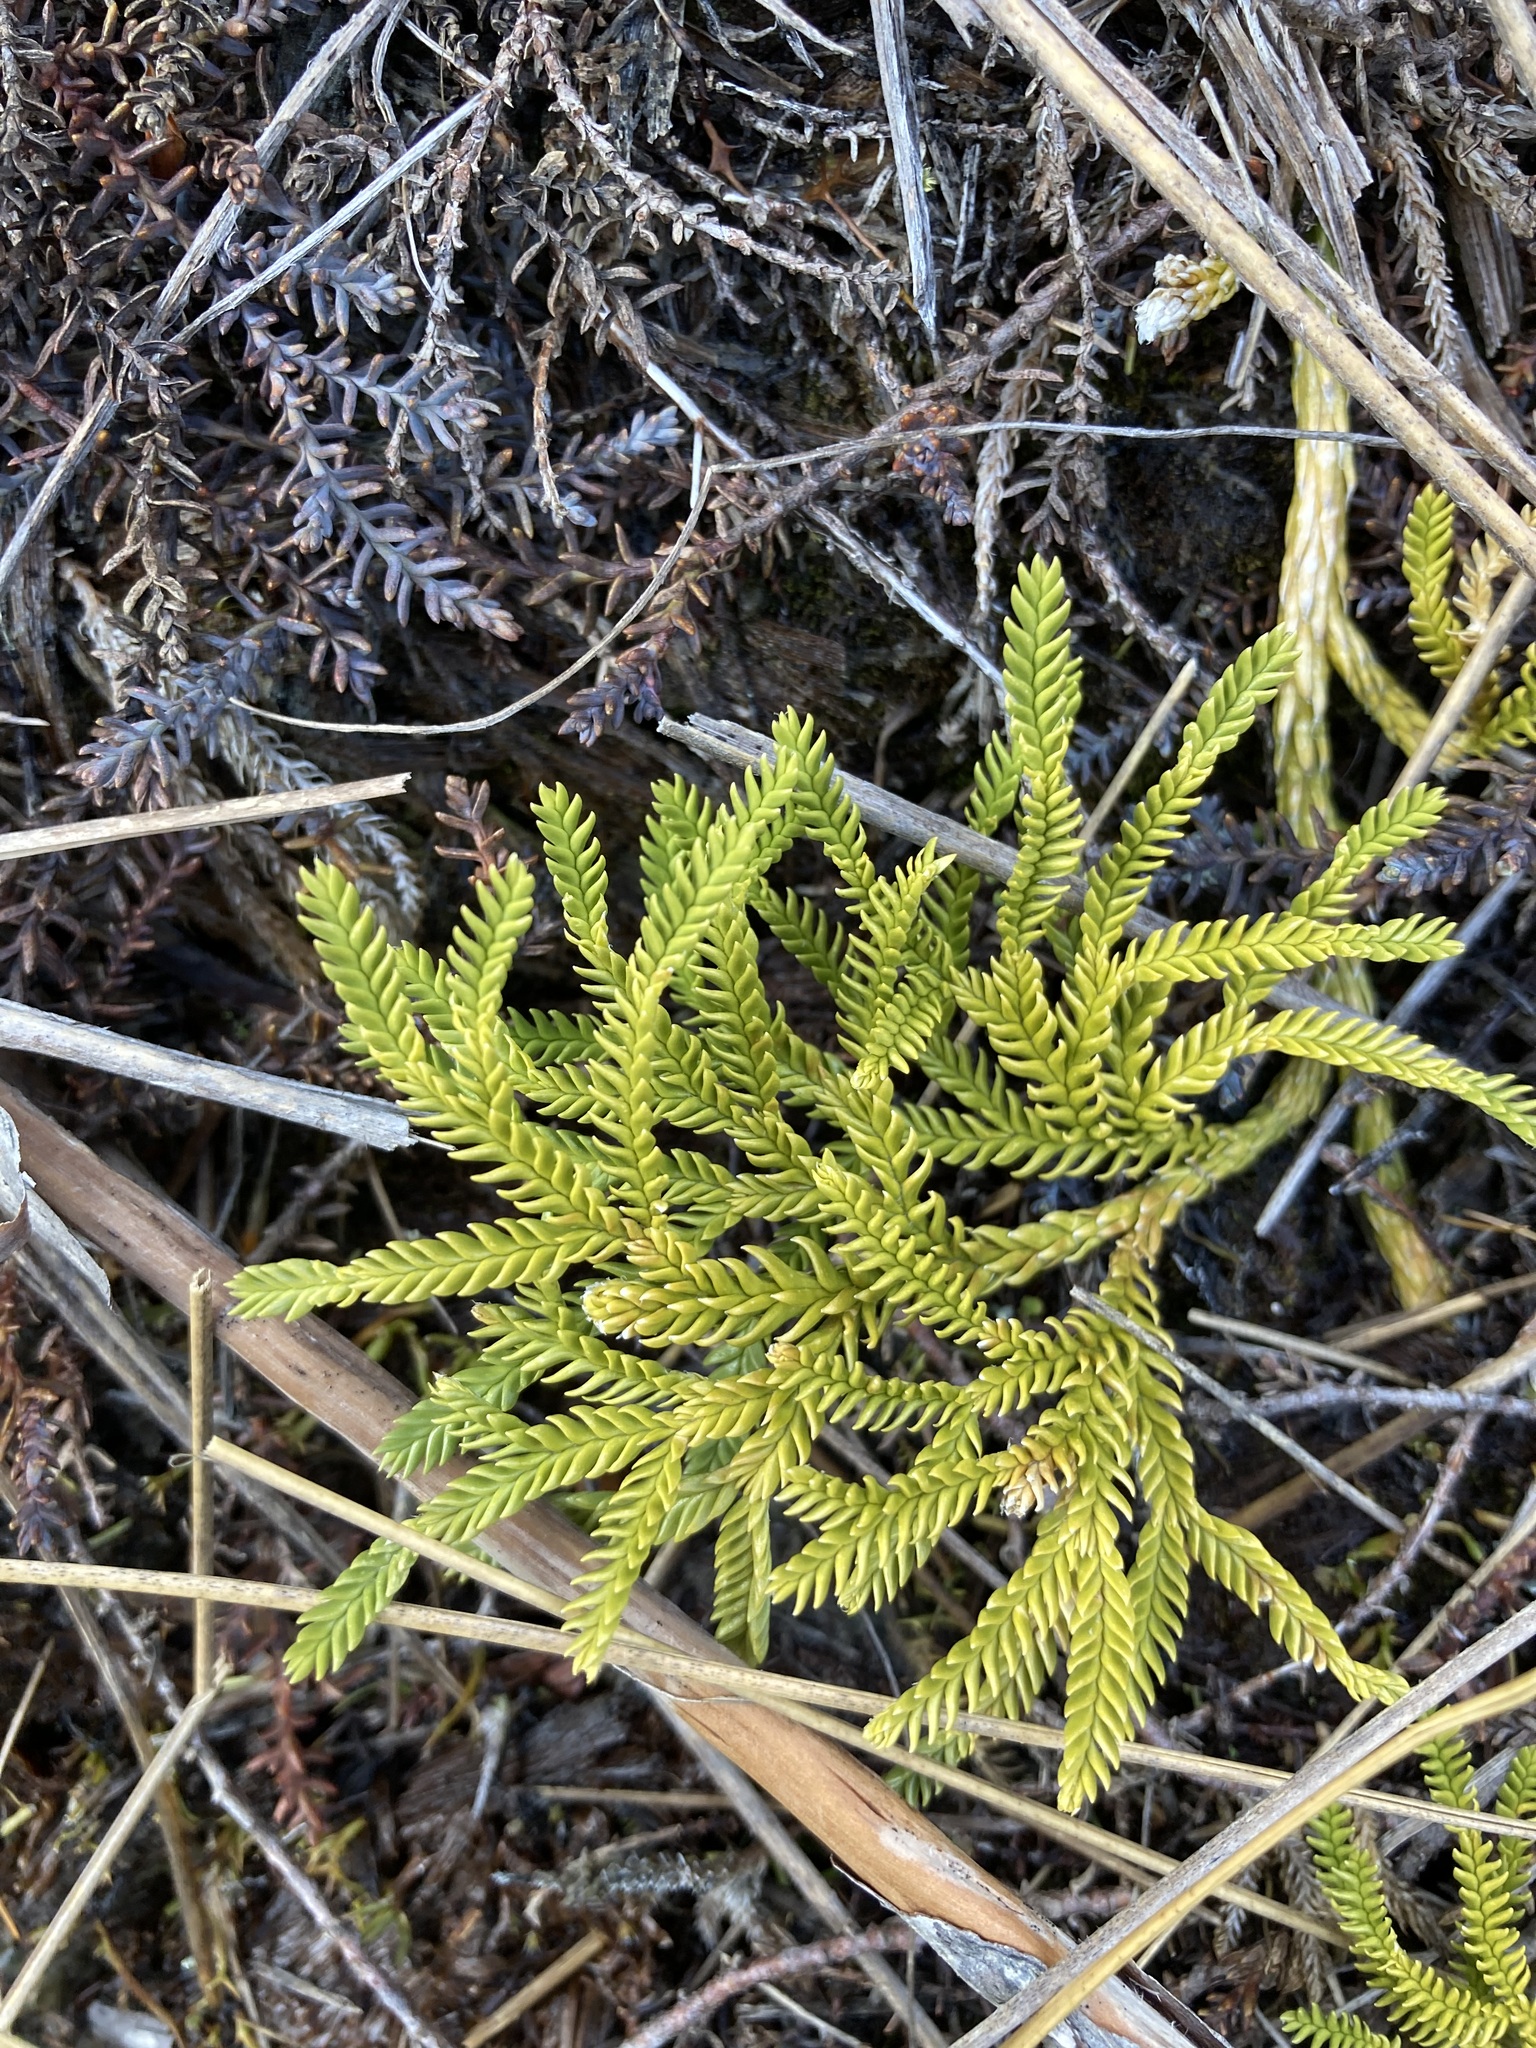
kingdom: Plantae
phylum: Tracheophyta
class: Lycopodiopsida
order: Lycopodiales
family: Lycopodiaceae
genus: Diphasium
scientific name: Diphasium scariosum
